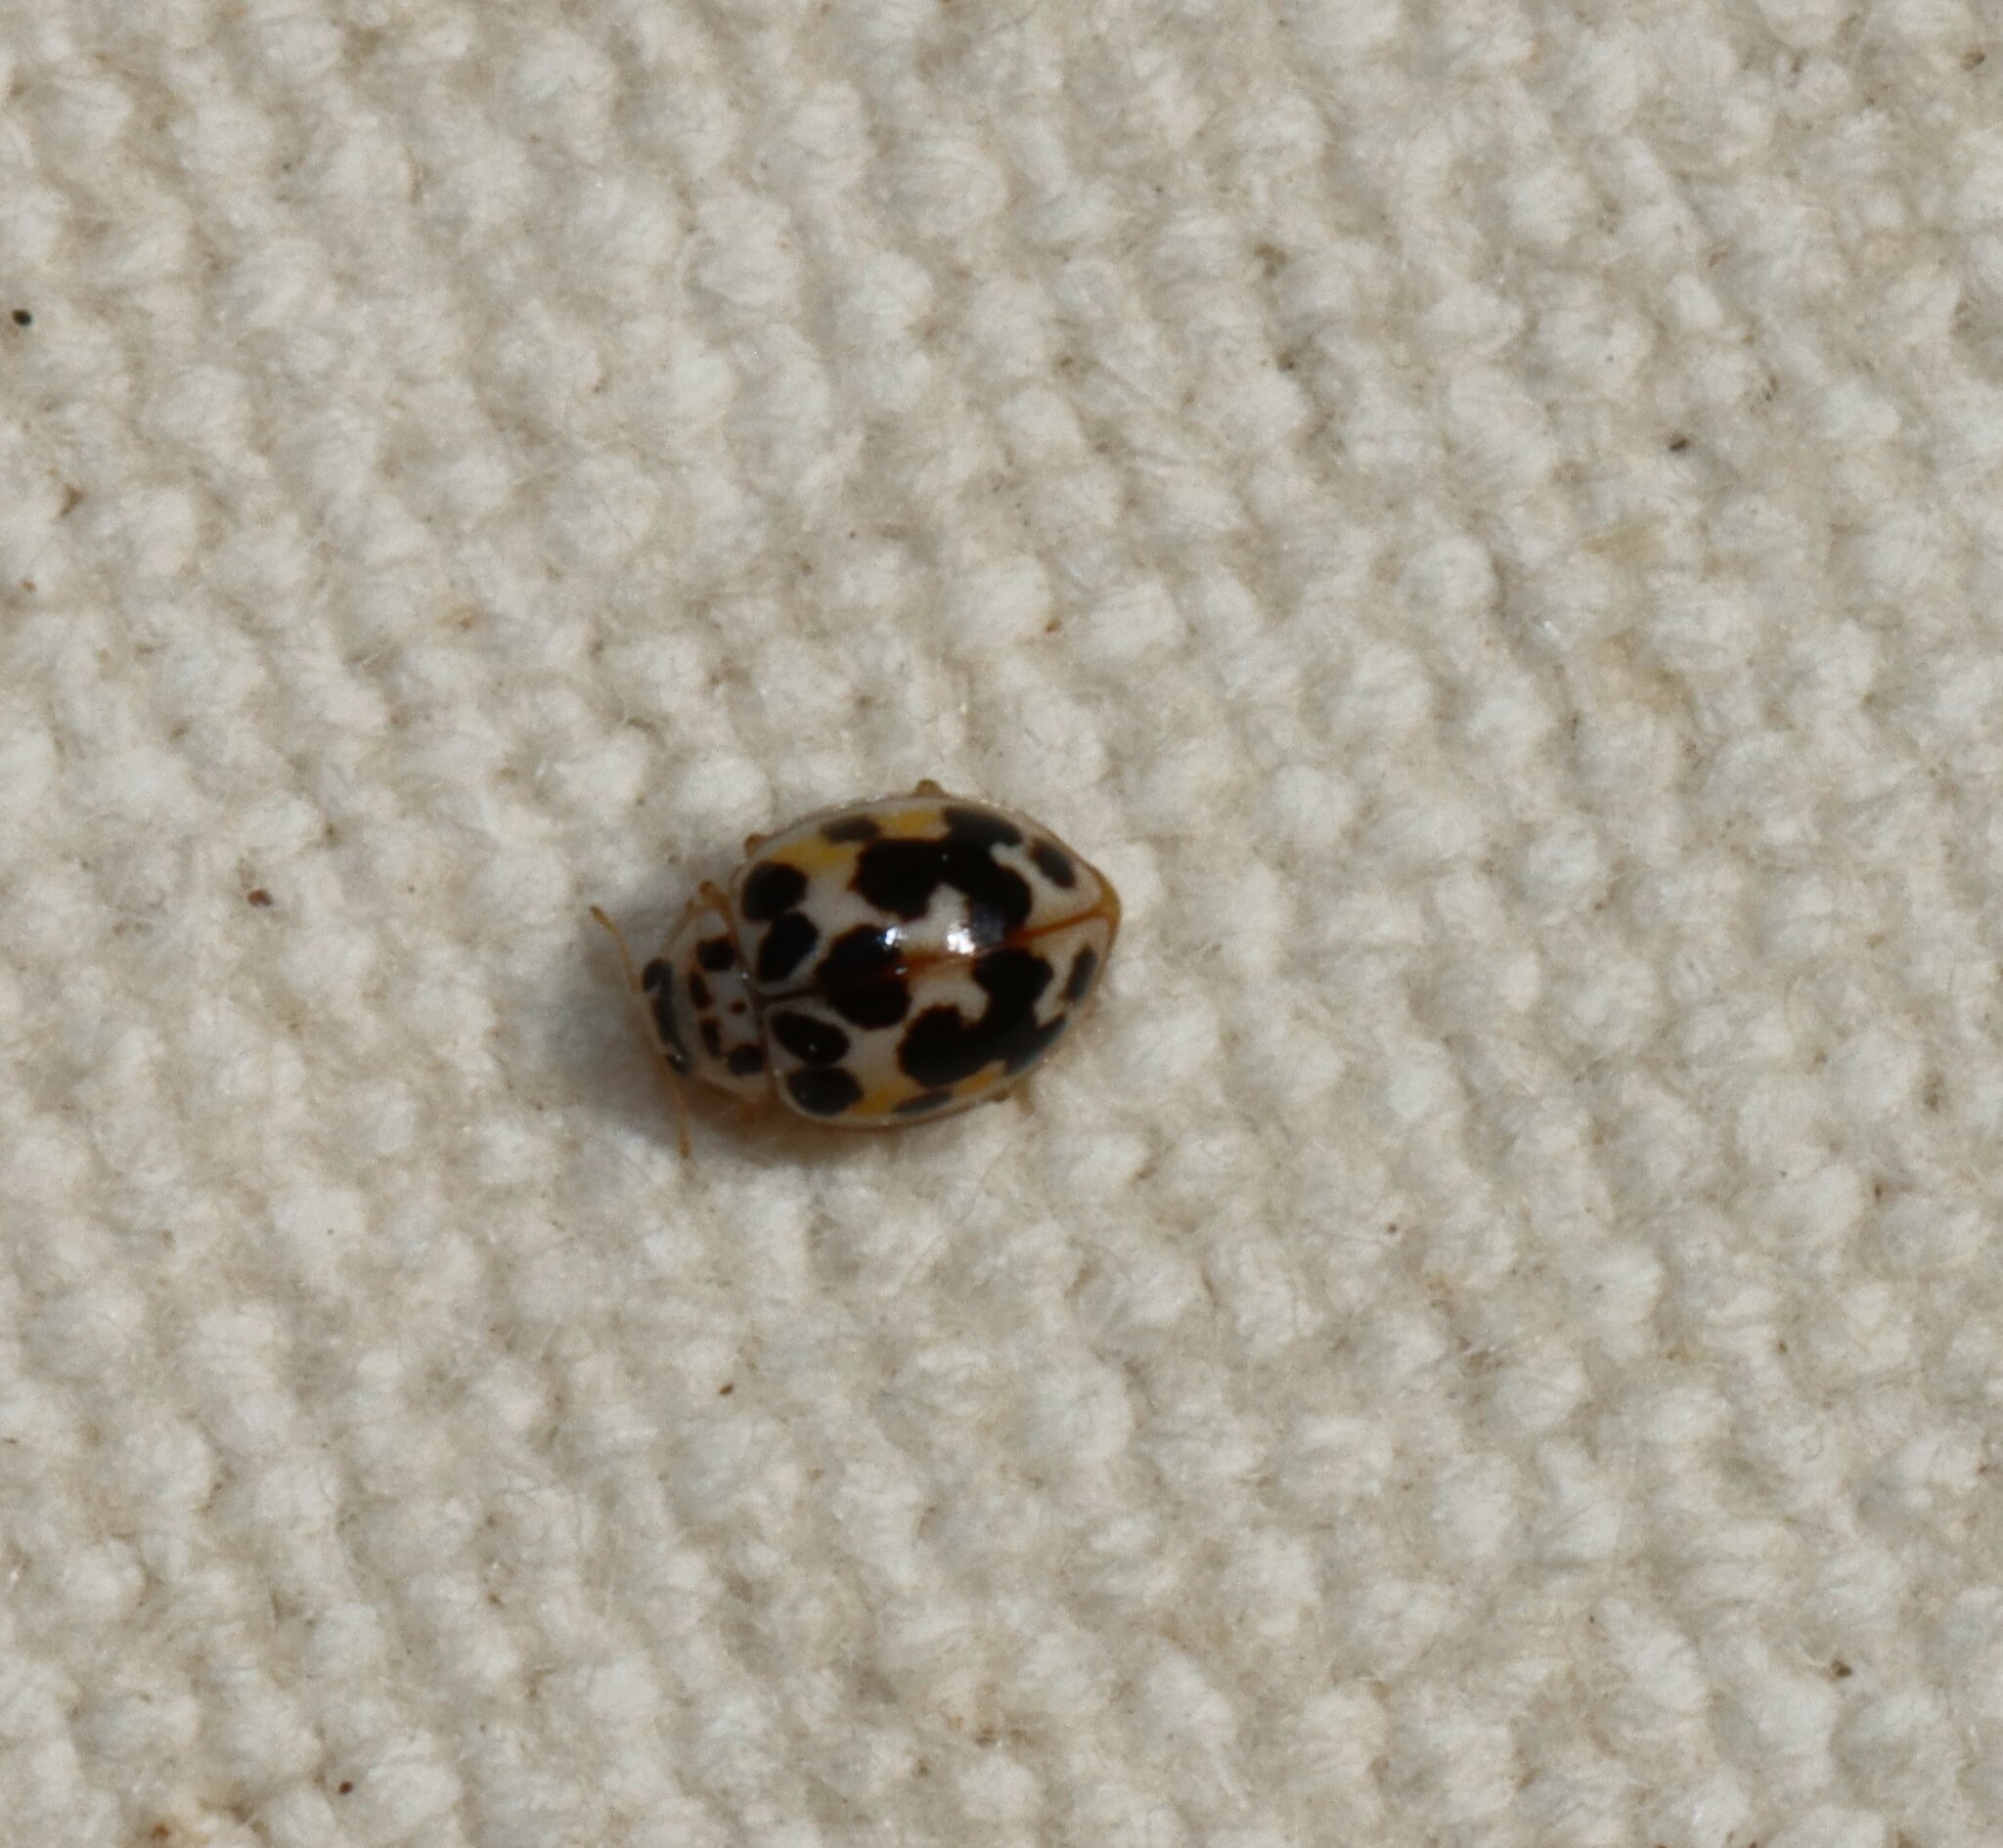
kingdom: Animalia
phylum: Arthropoda
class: Insecta
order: Coleoptera
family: Coccinellidae
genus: Psyllobora
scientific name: Psyllobora vigintimaculata
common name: Ladybird beetle
